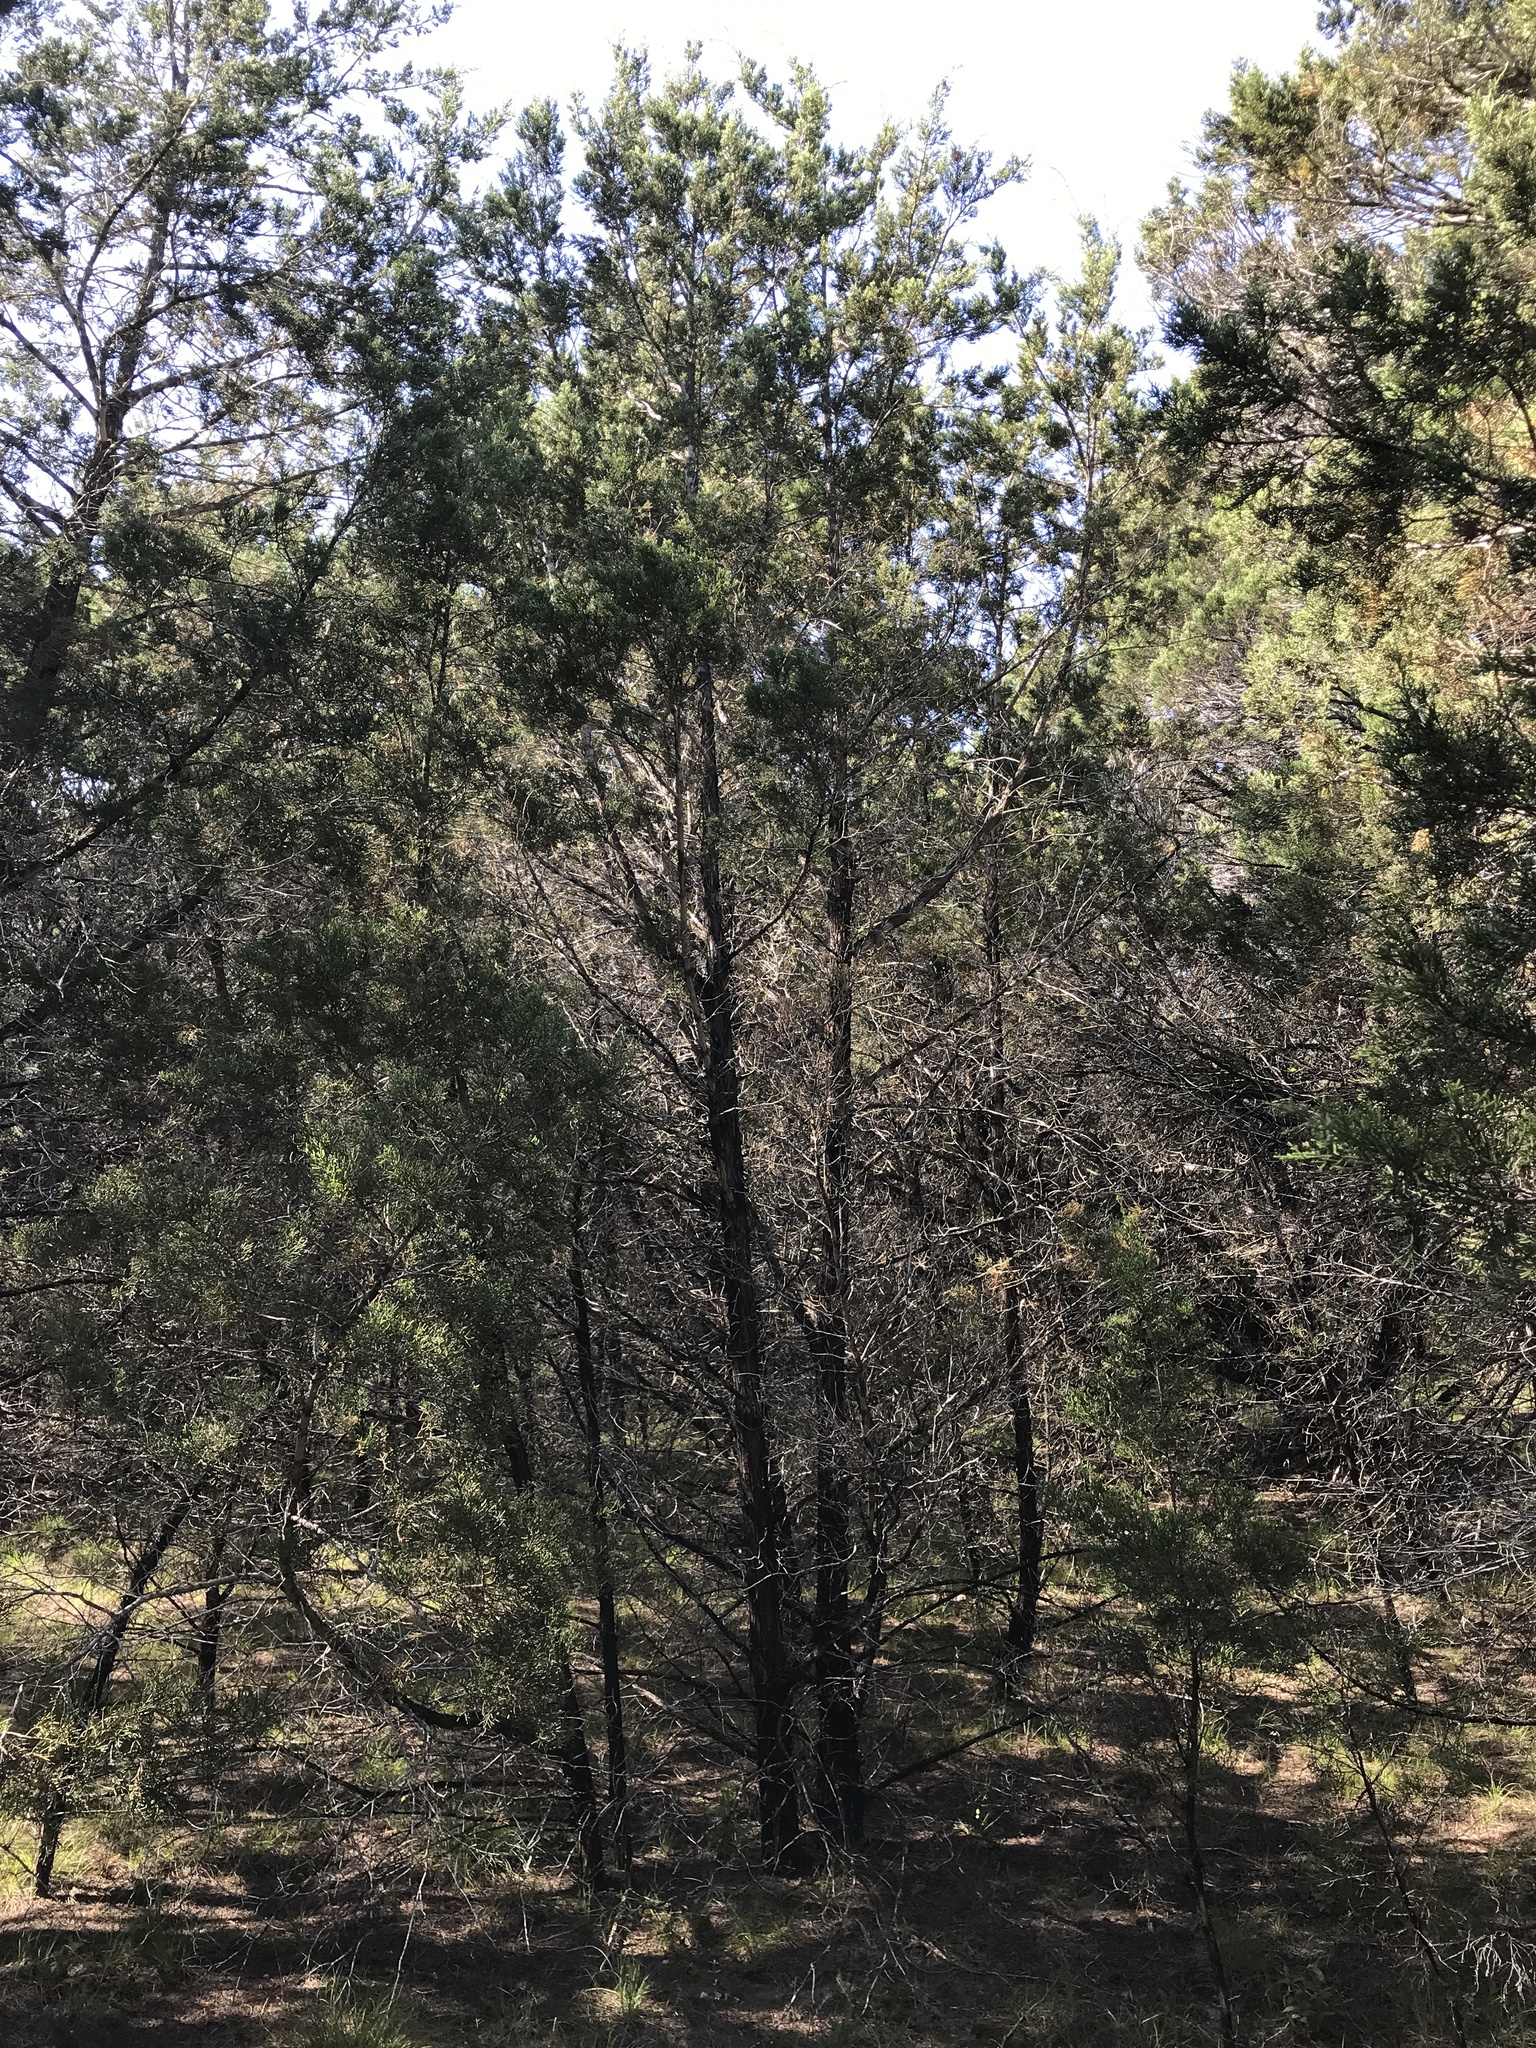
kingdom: Plantae
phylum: Tracheophyta
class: Pinopsida
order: Pinales
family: Cupressaceae
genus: Juniperus
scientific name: Juniperus ashei
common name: Mexican juniper
